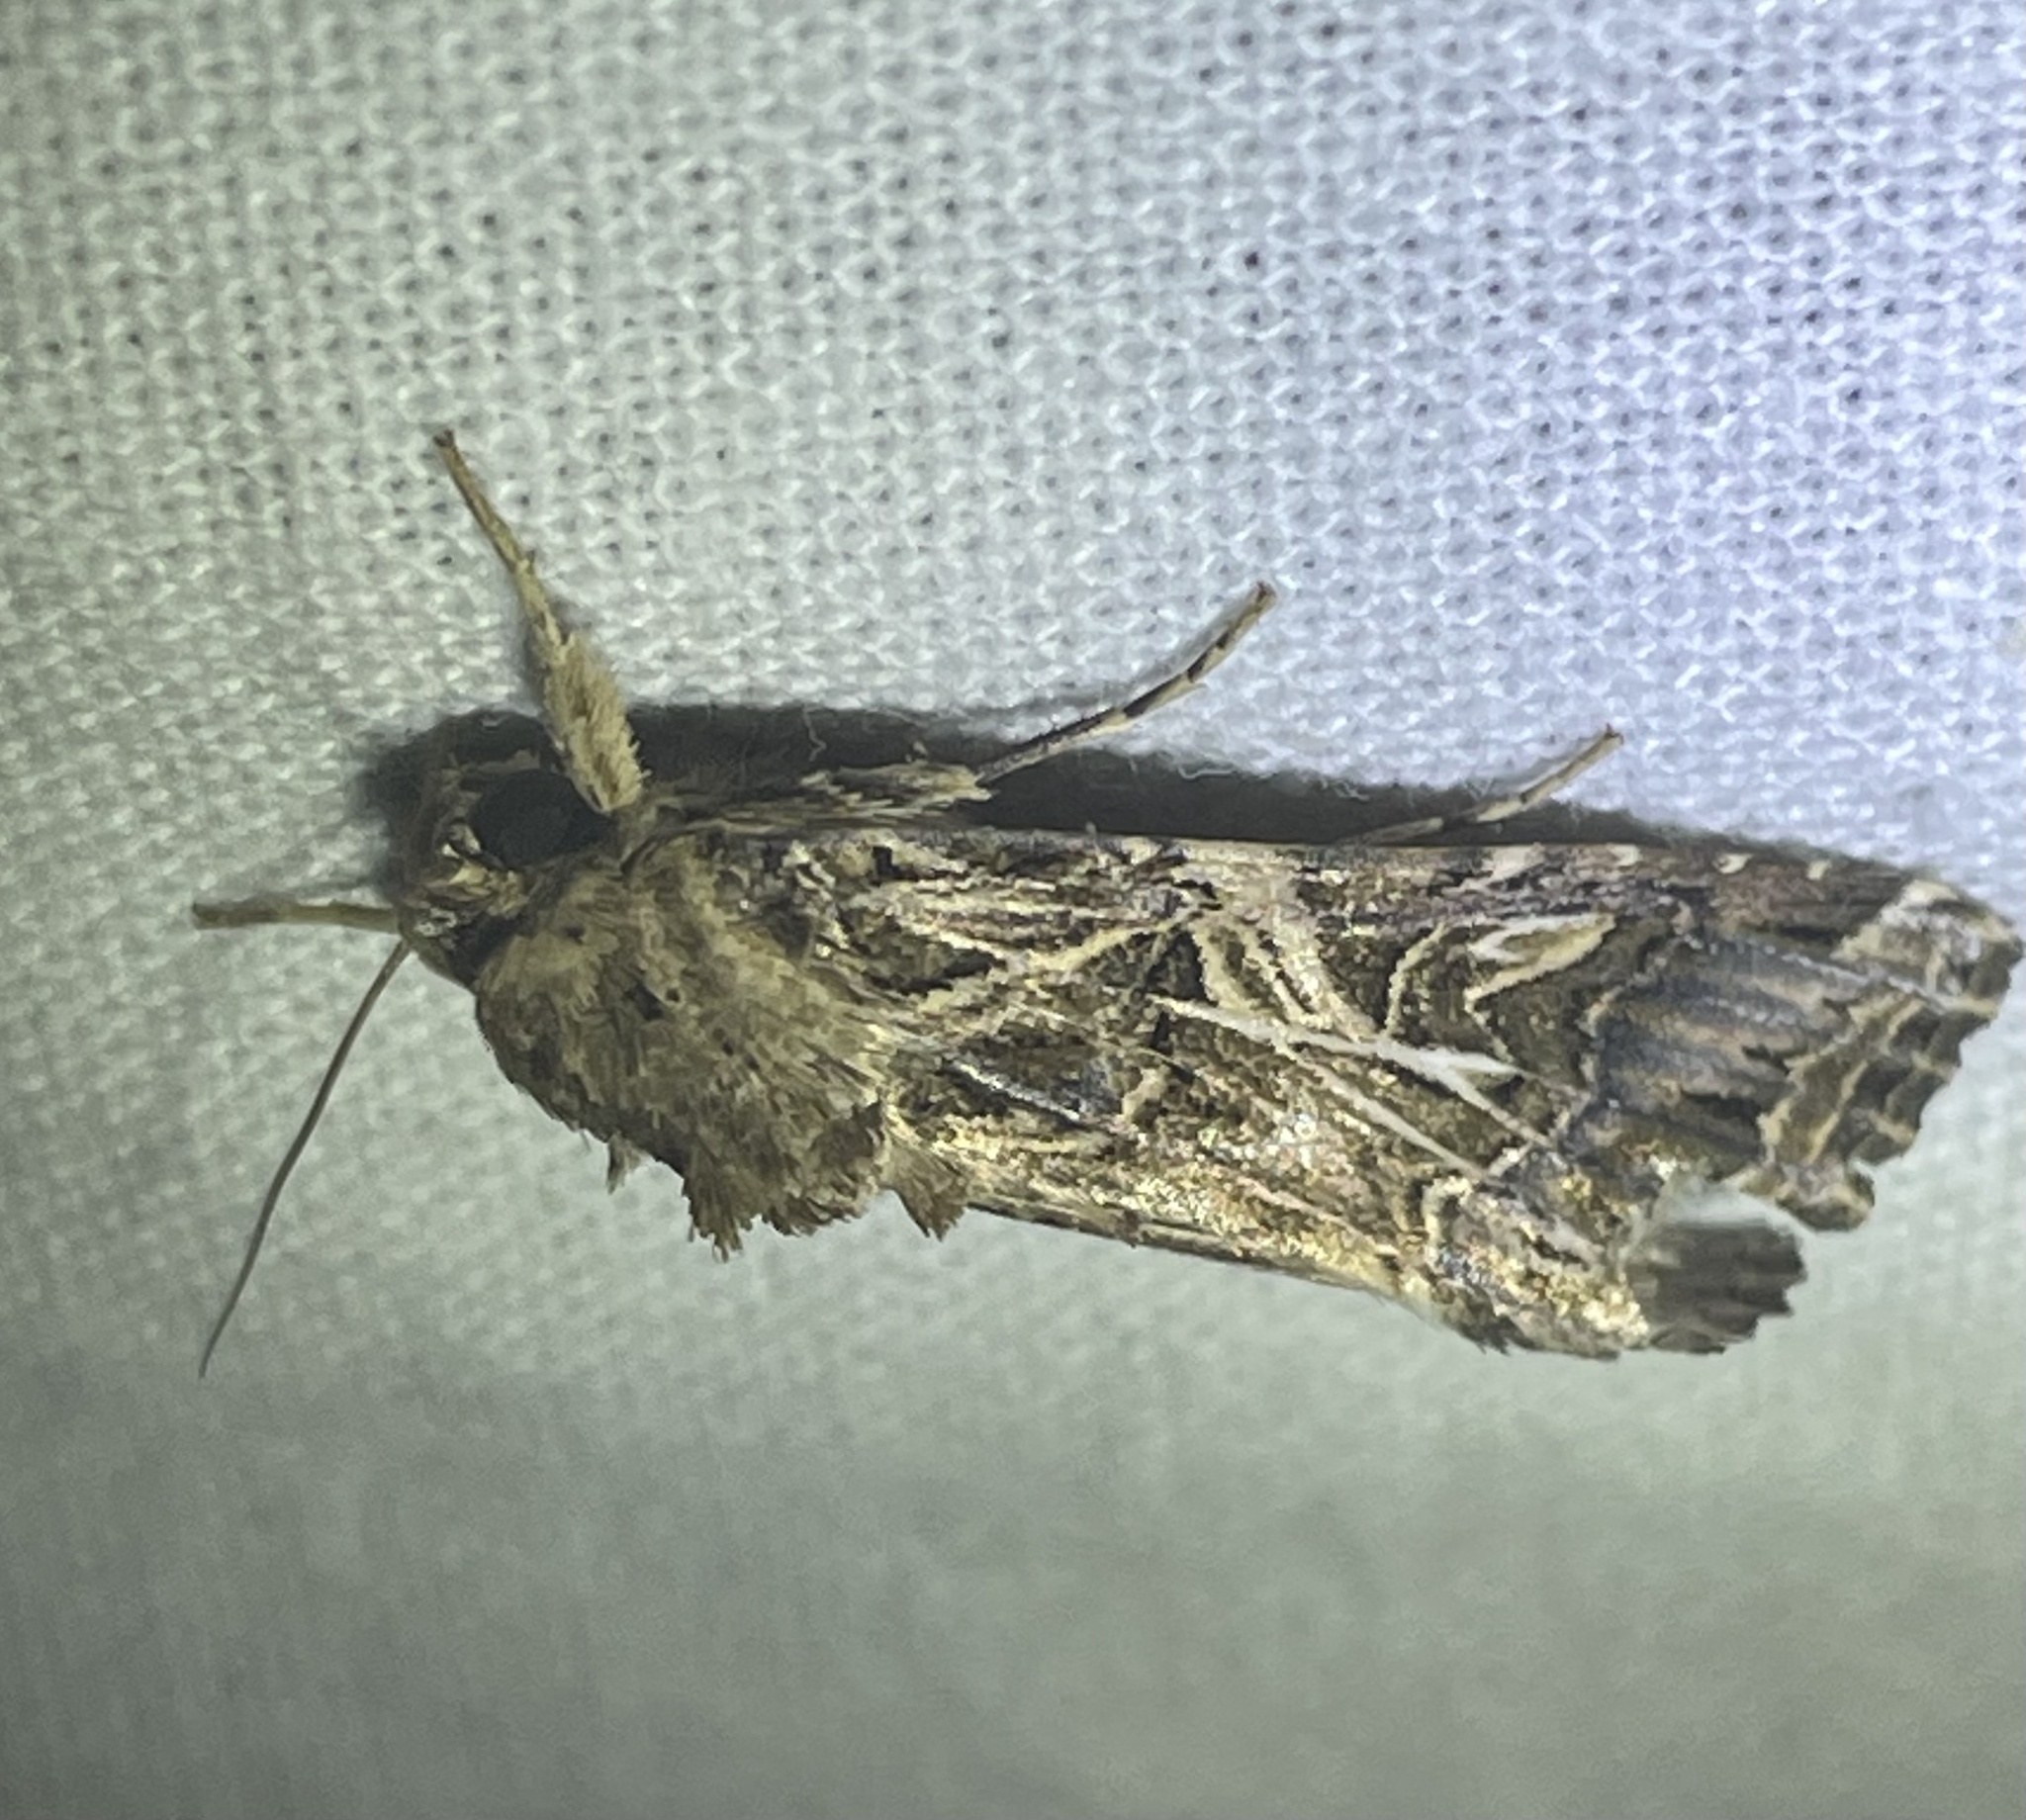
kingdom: Animalia
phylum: Arthropoda
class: Insecta
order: Lepidoptera
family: Noctuidae
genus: Spodoptera
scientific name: Spodoptera litura
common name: Asian cotton leafworm
